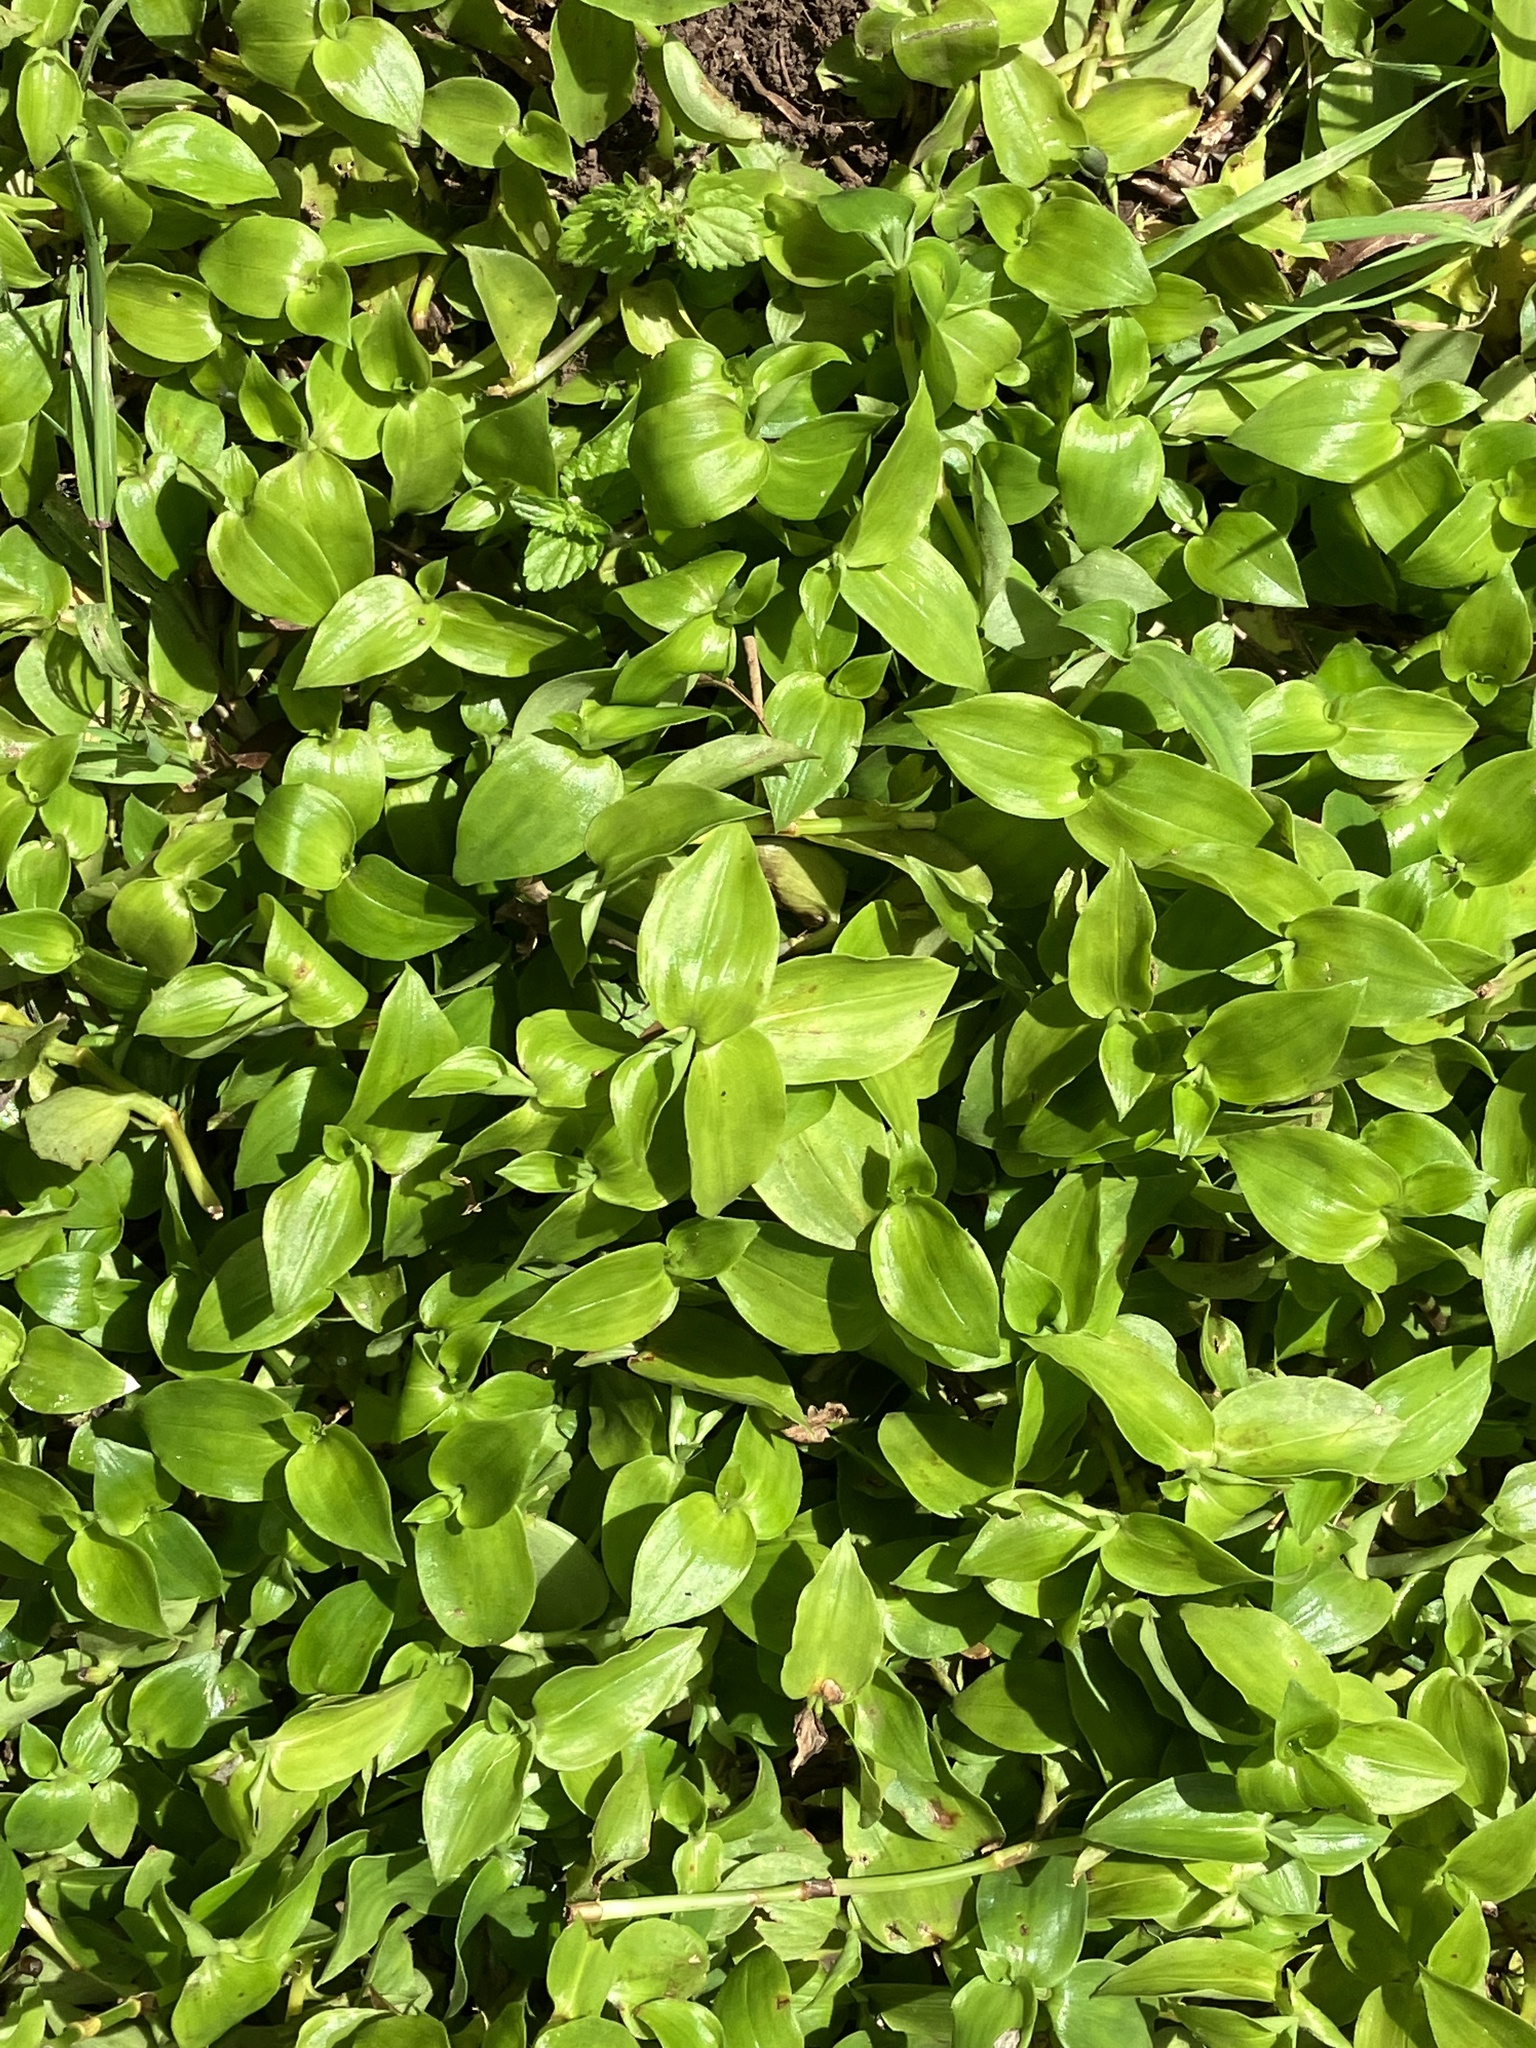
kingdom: Plantae
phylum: Tracheophyta
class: Liliopsida
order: Commelinales
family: Commelinaceae
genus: Tradescantia
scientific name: Tradescantia fluminensis
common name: Wandering-jew
